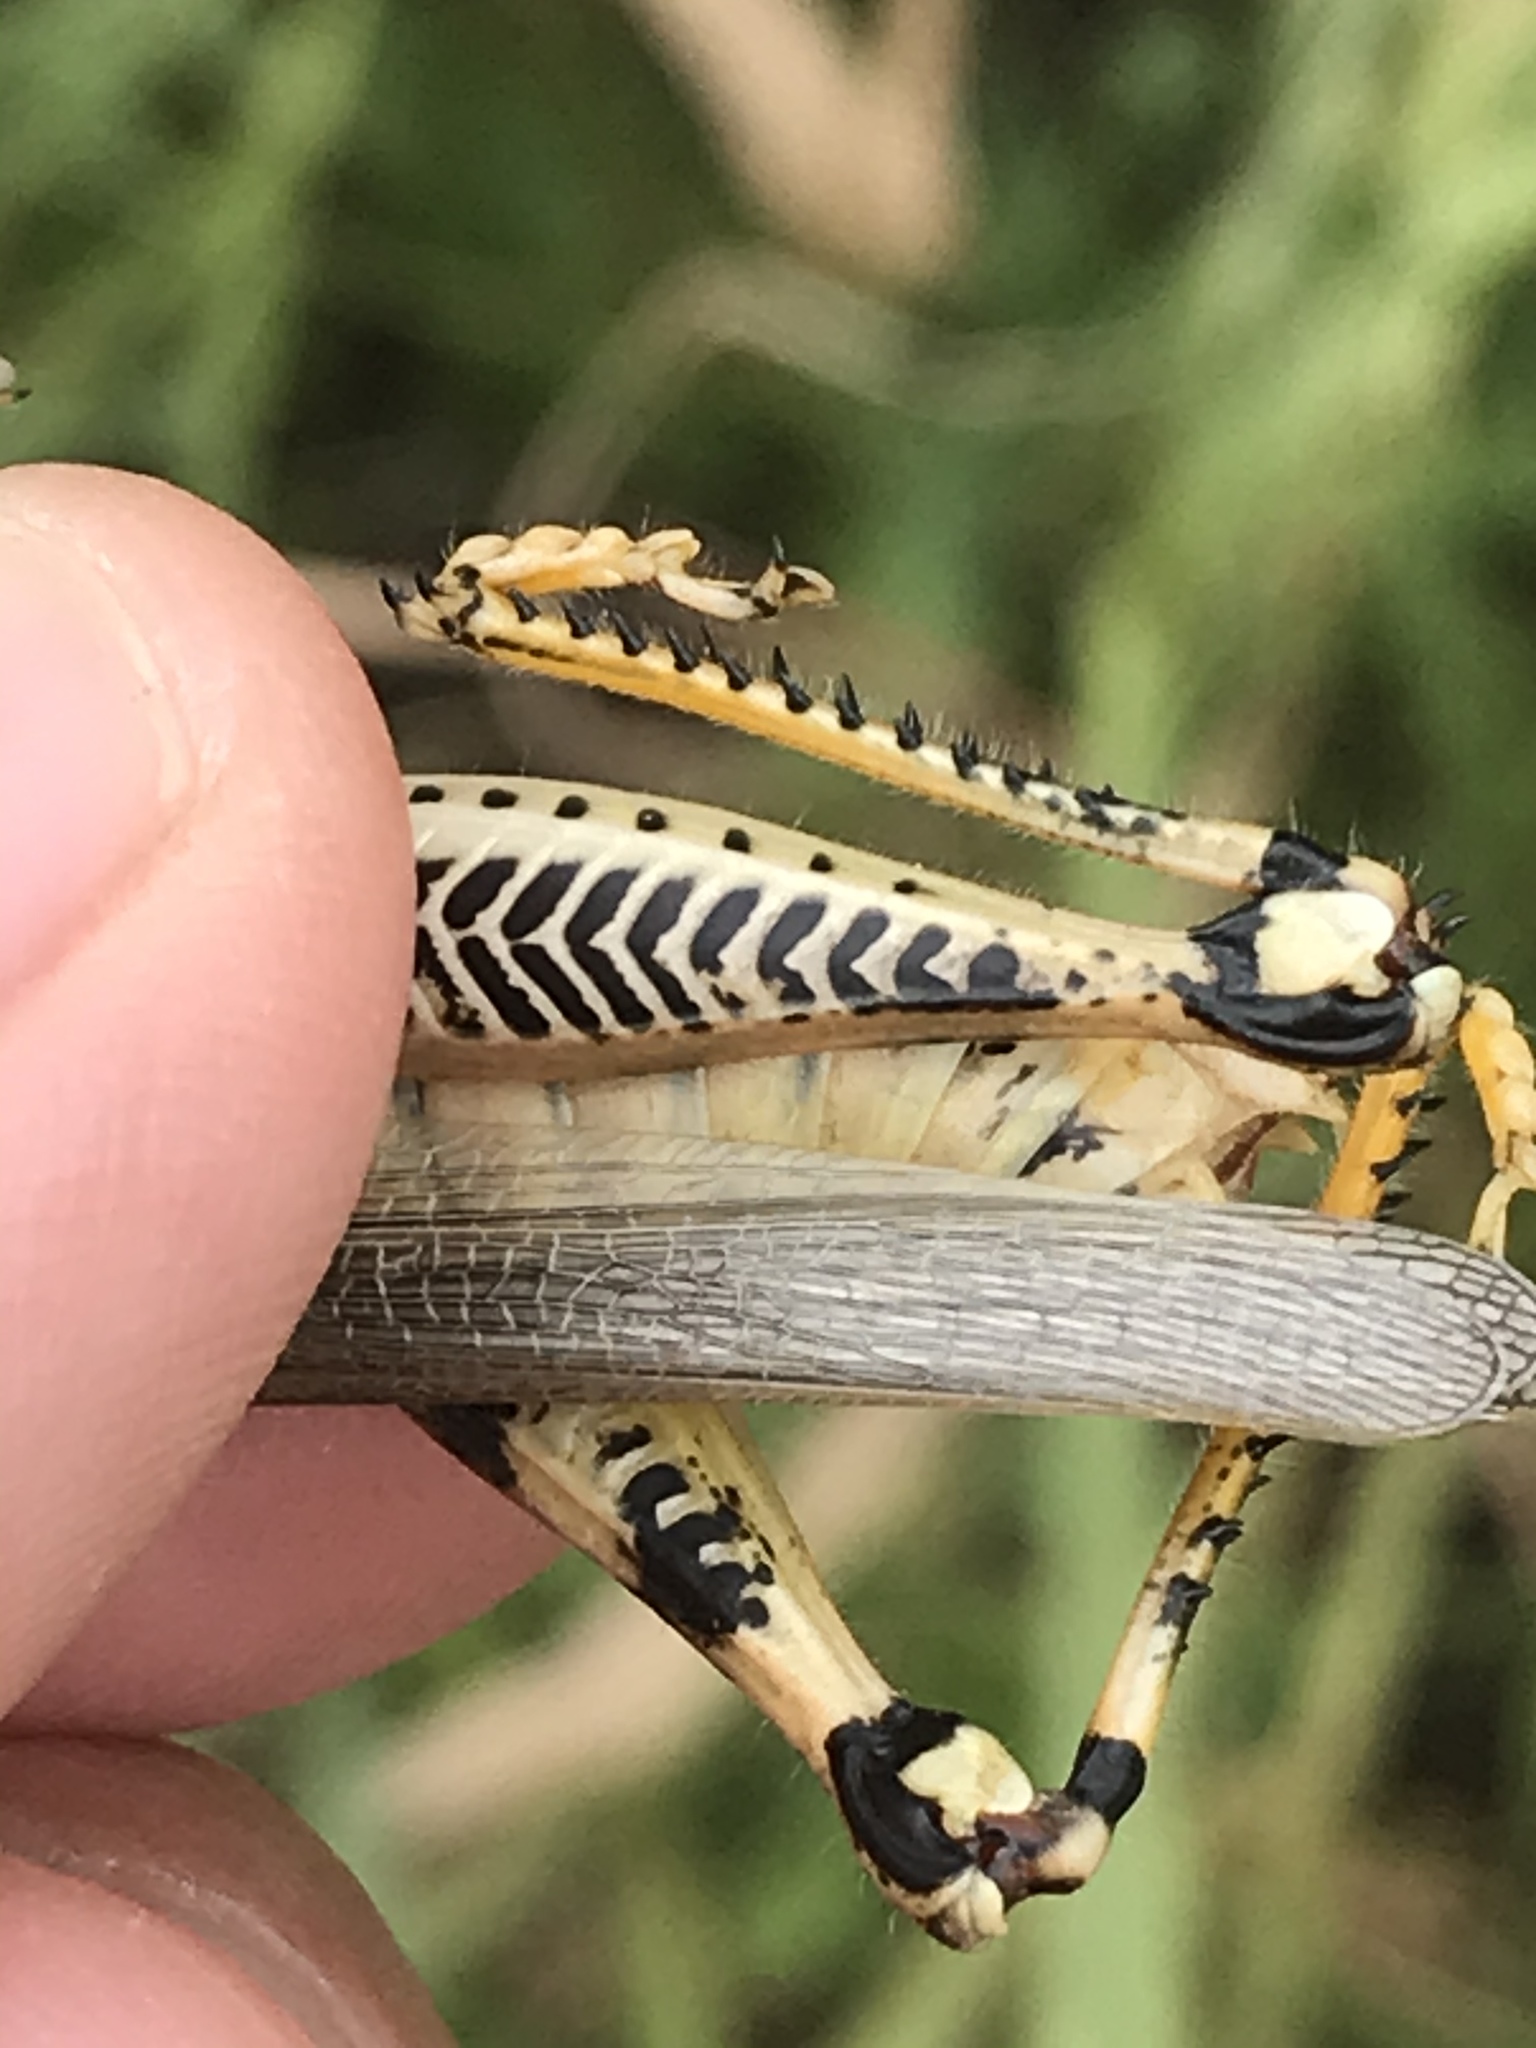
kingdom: Animalia
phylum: Arthropoda
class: Insecta
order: Orthoptera
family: Acrididae
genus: Melanoplus
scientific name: Melanoplus differentialis
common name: Differential grasshopper
